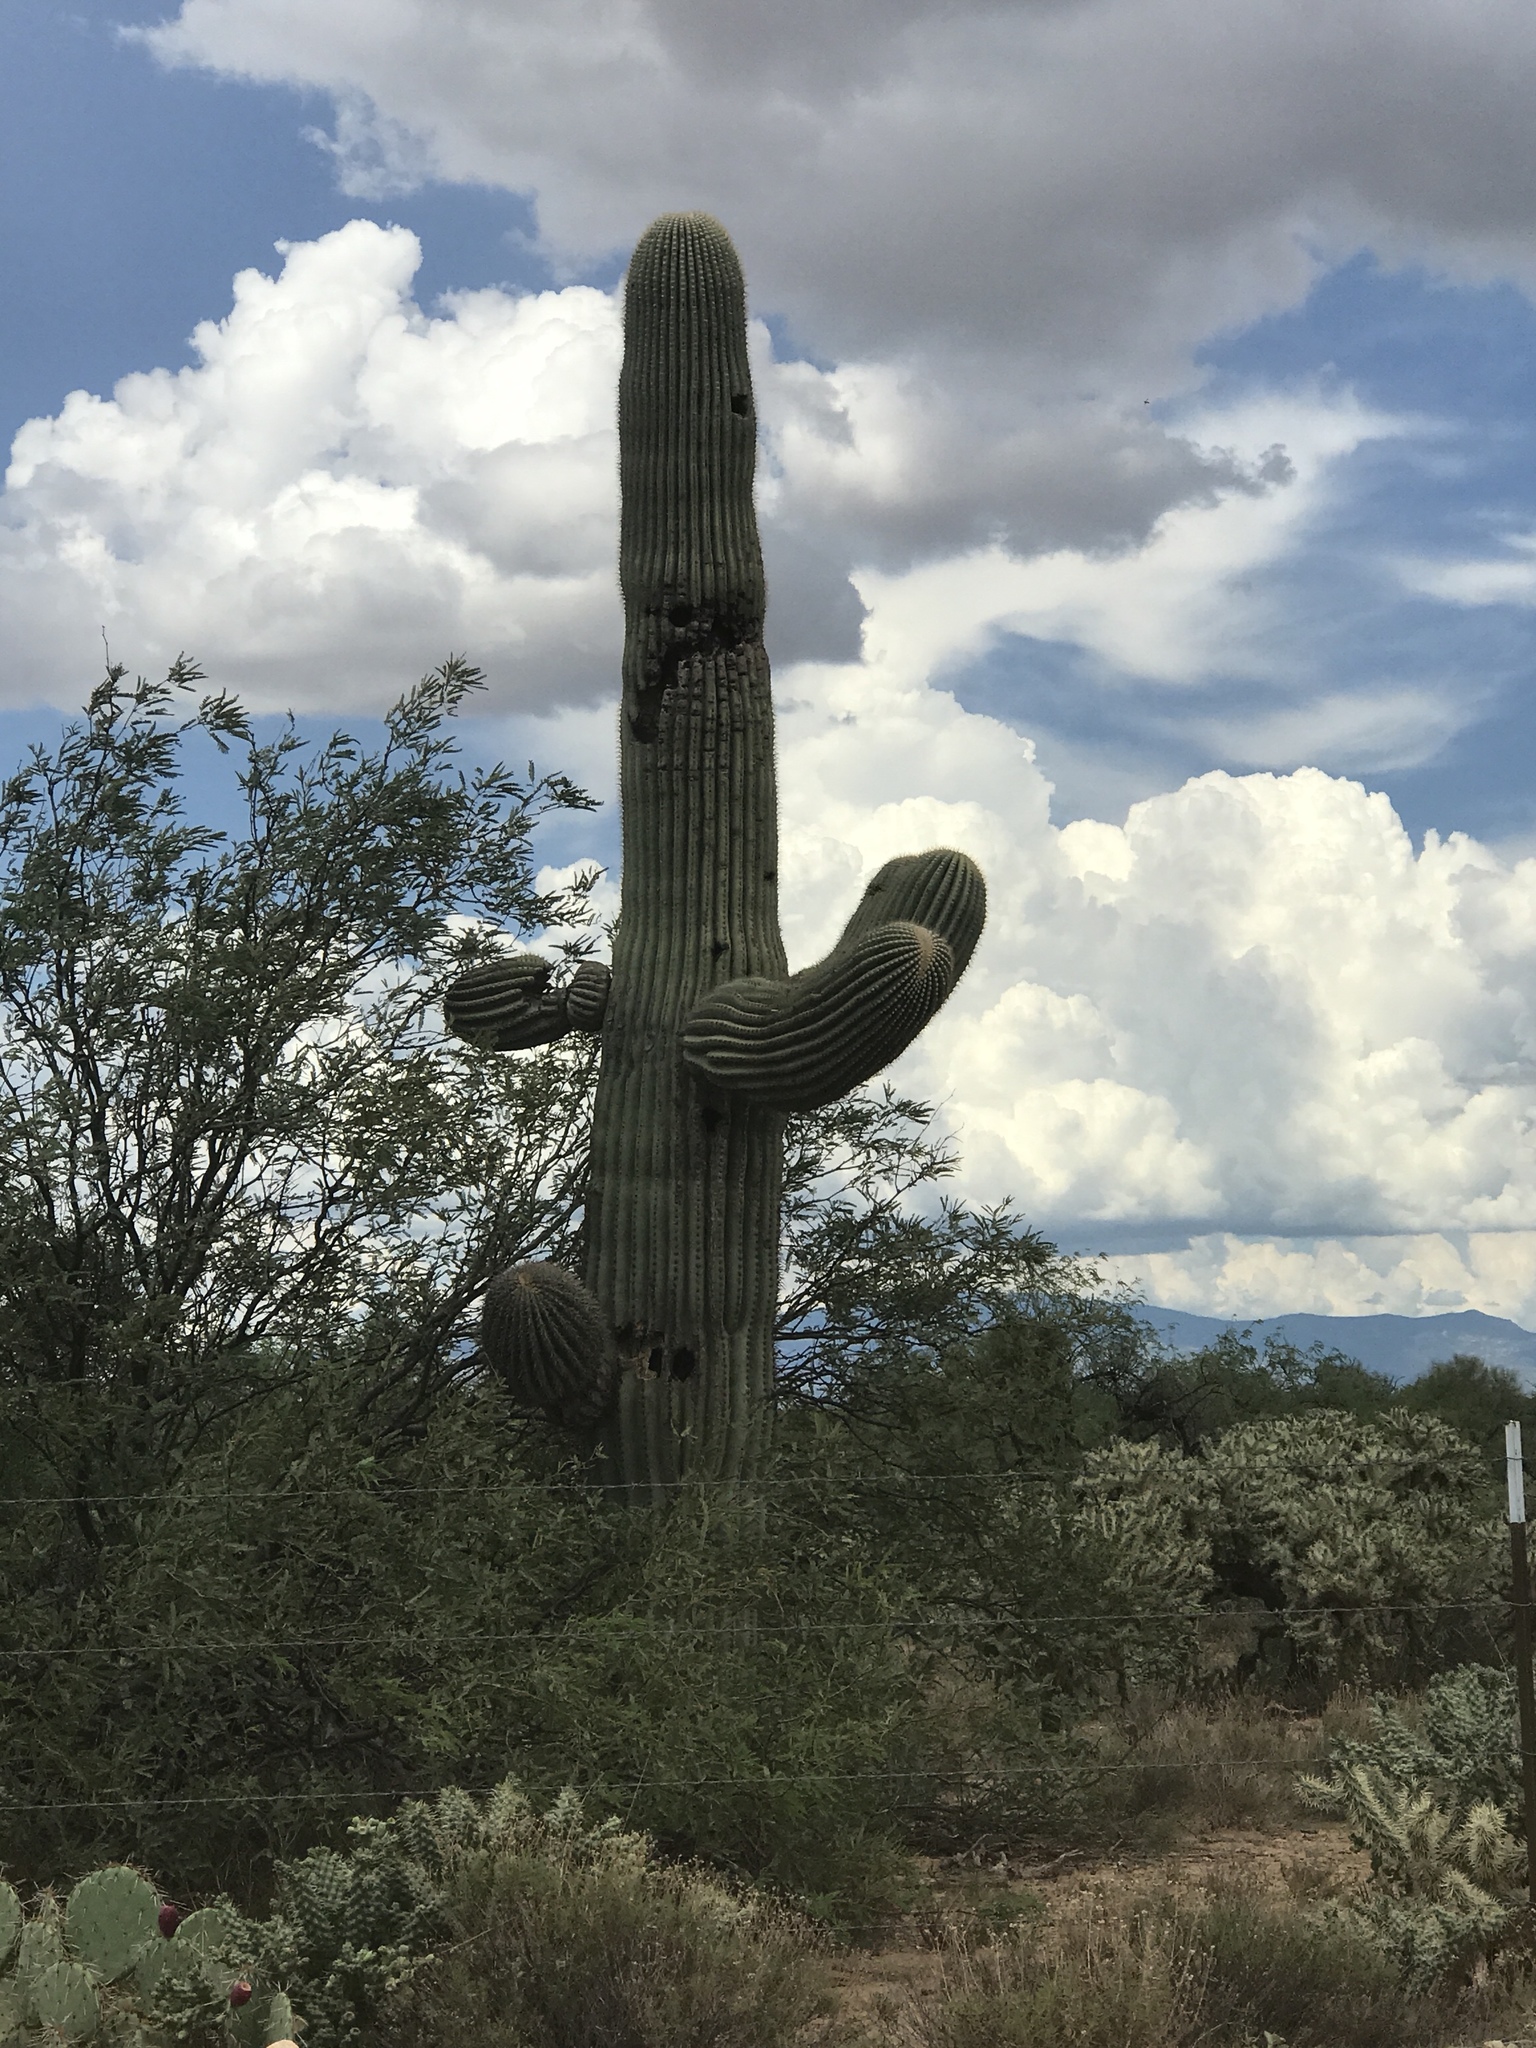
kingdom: Plantae
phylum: Tracheophyta
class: Magnoliopsida
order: Caryophyllales
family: Cactaceae
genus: Carnegiea
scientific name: Carnegiea gigantea
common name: Saguaro
